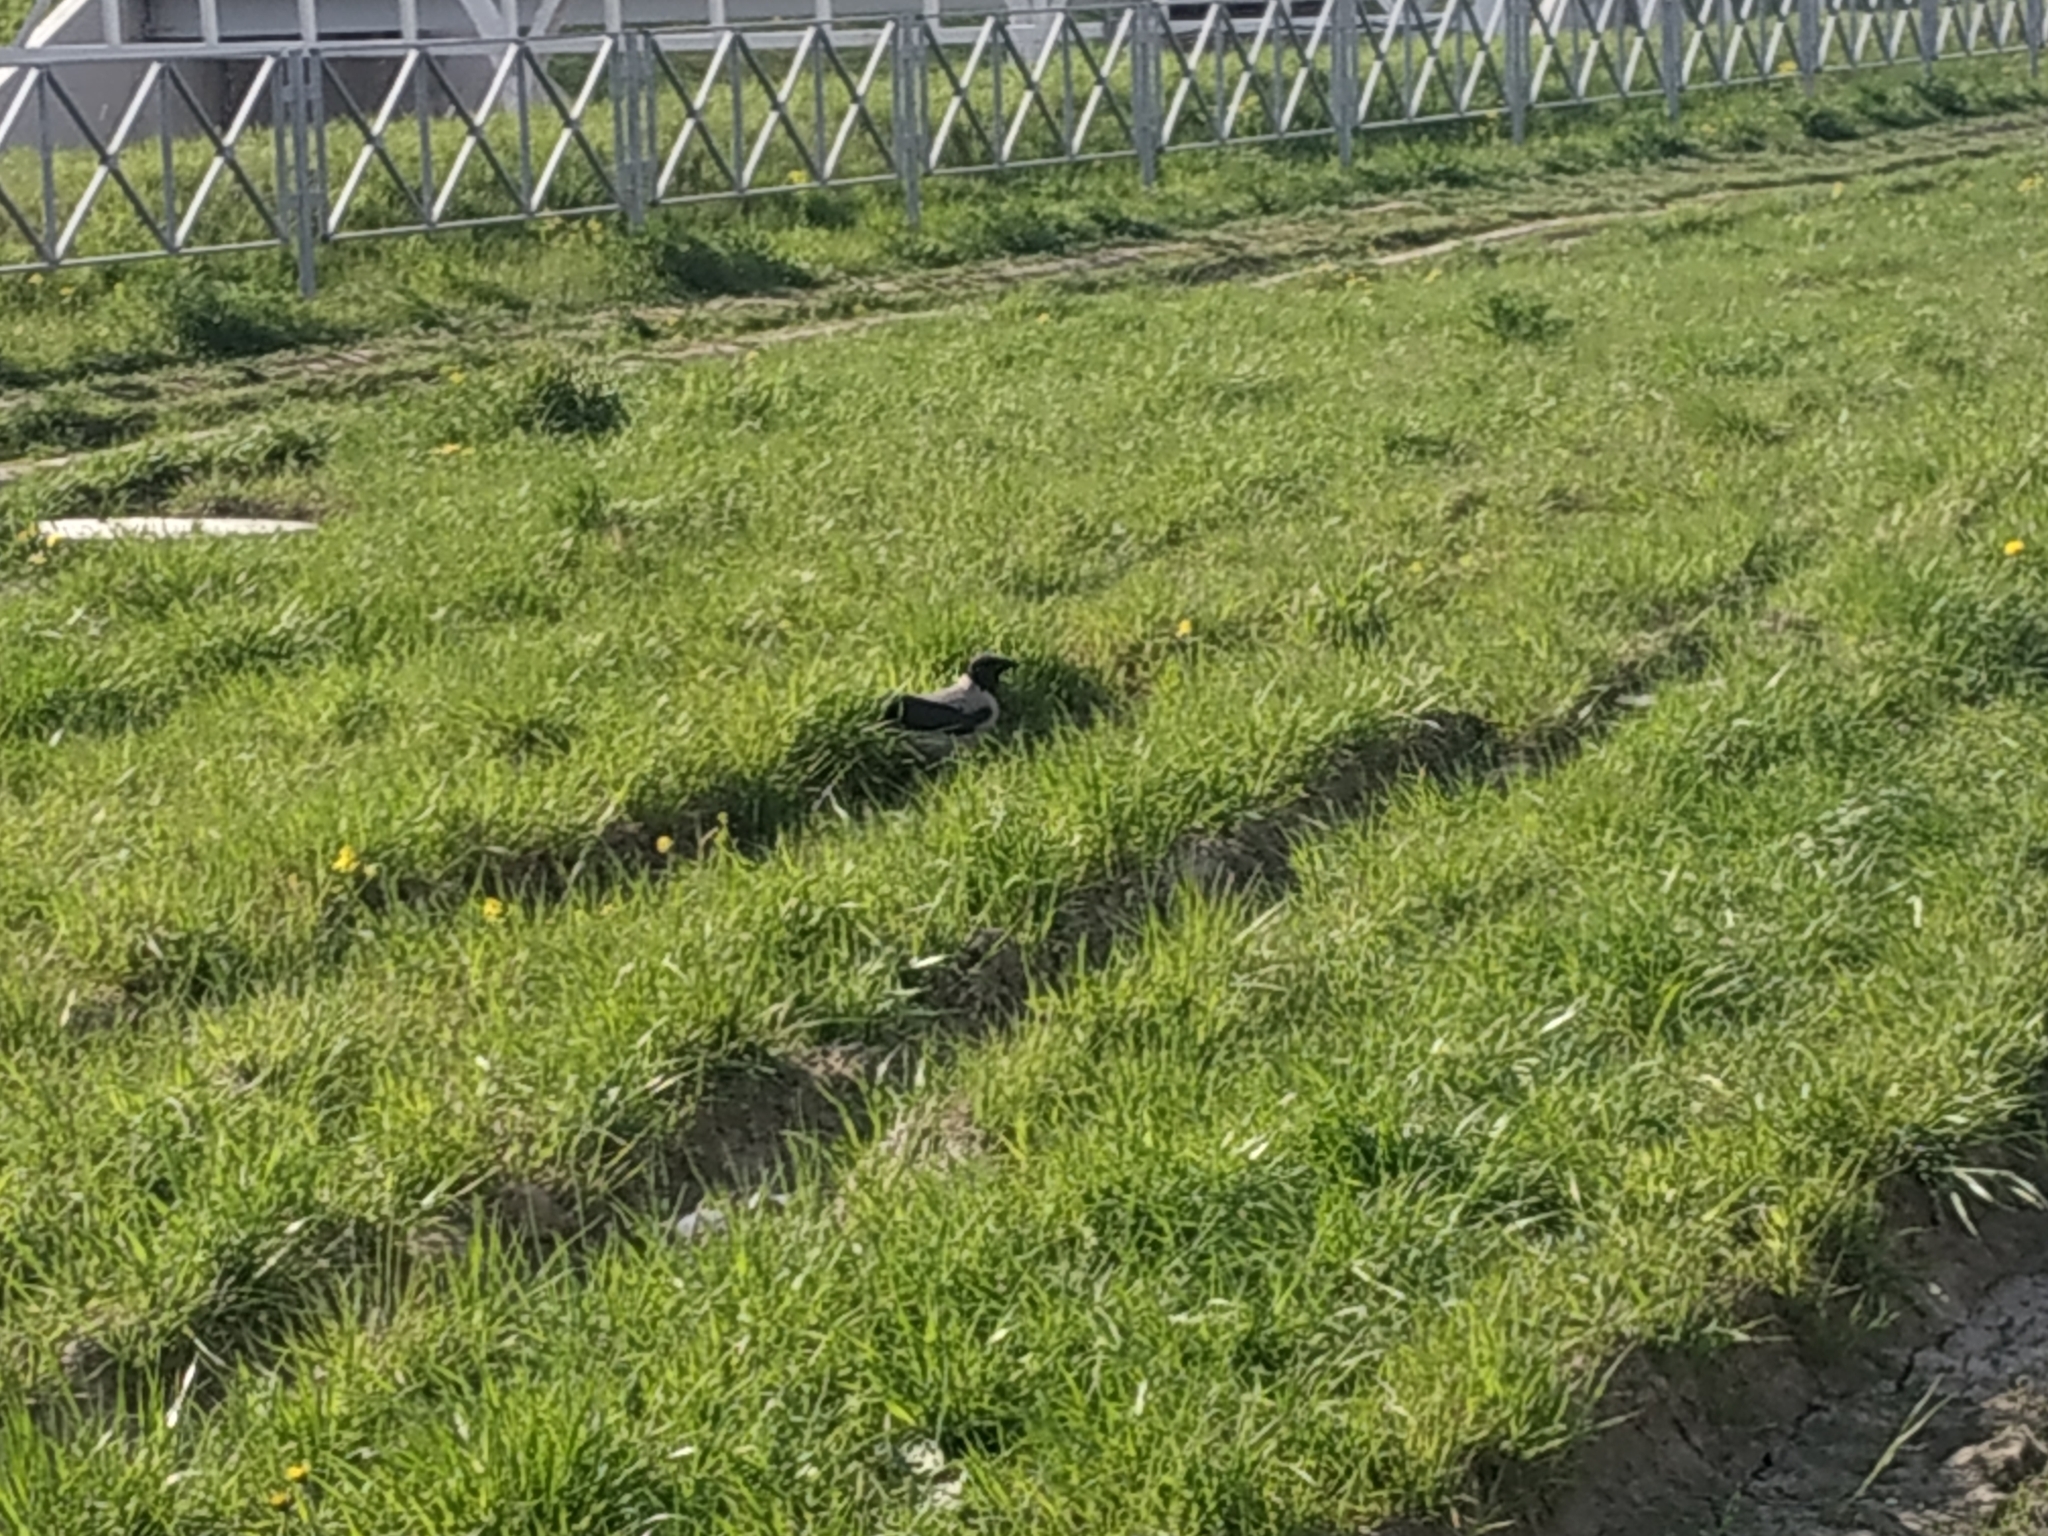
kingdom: Animalia
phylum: Chordata
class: Aves
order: Passeriformes
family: Corvidae
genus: Corvus
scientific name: Corvus cornix
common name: Hooded crow
